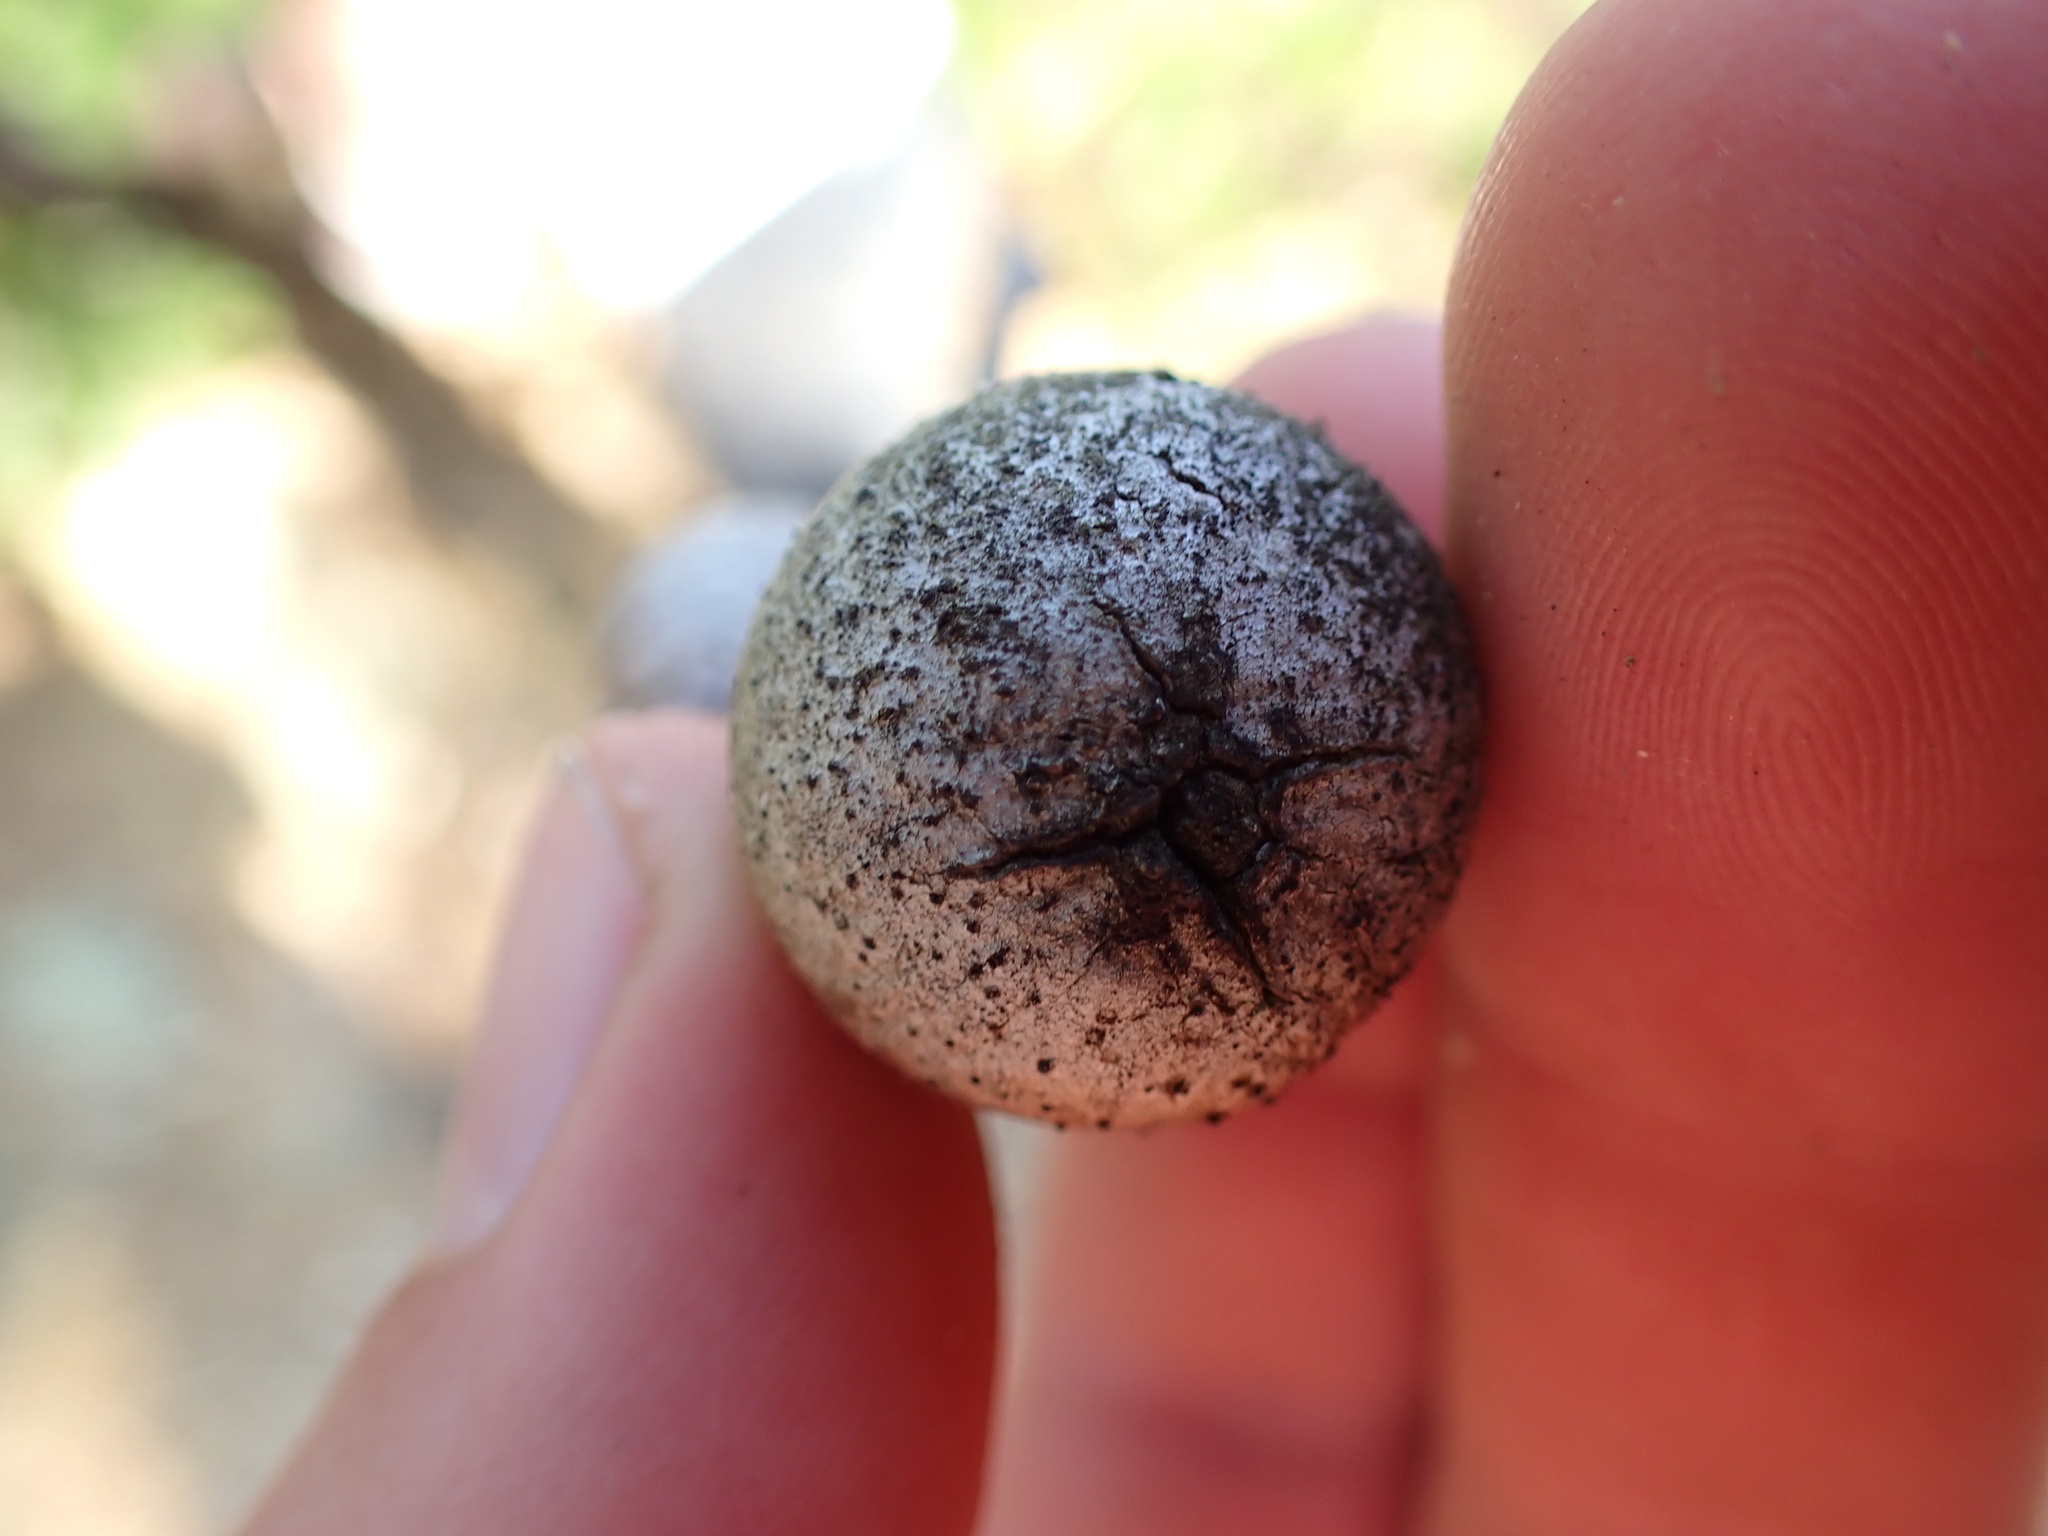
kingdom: Animalia
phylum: Arthropoda
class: Insecta
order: Hymenoptera
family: Cynipidae
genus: Andricus
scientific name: Andricus kollari
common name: Marble gall
